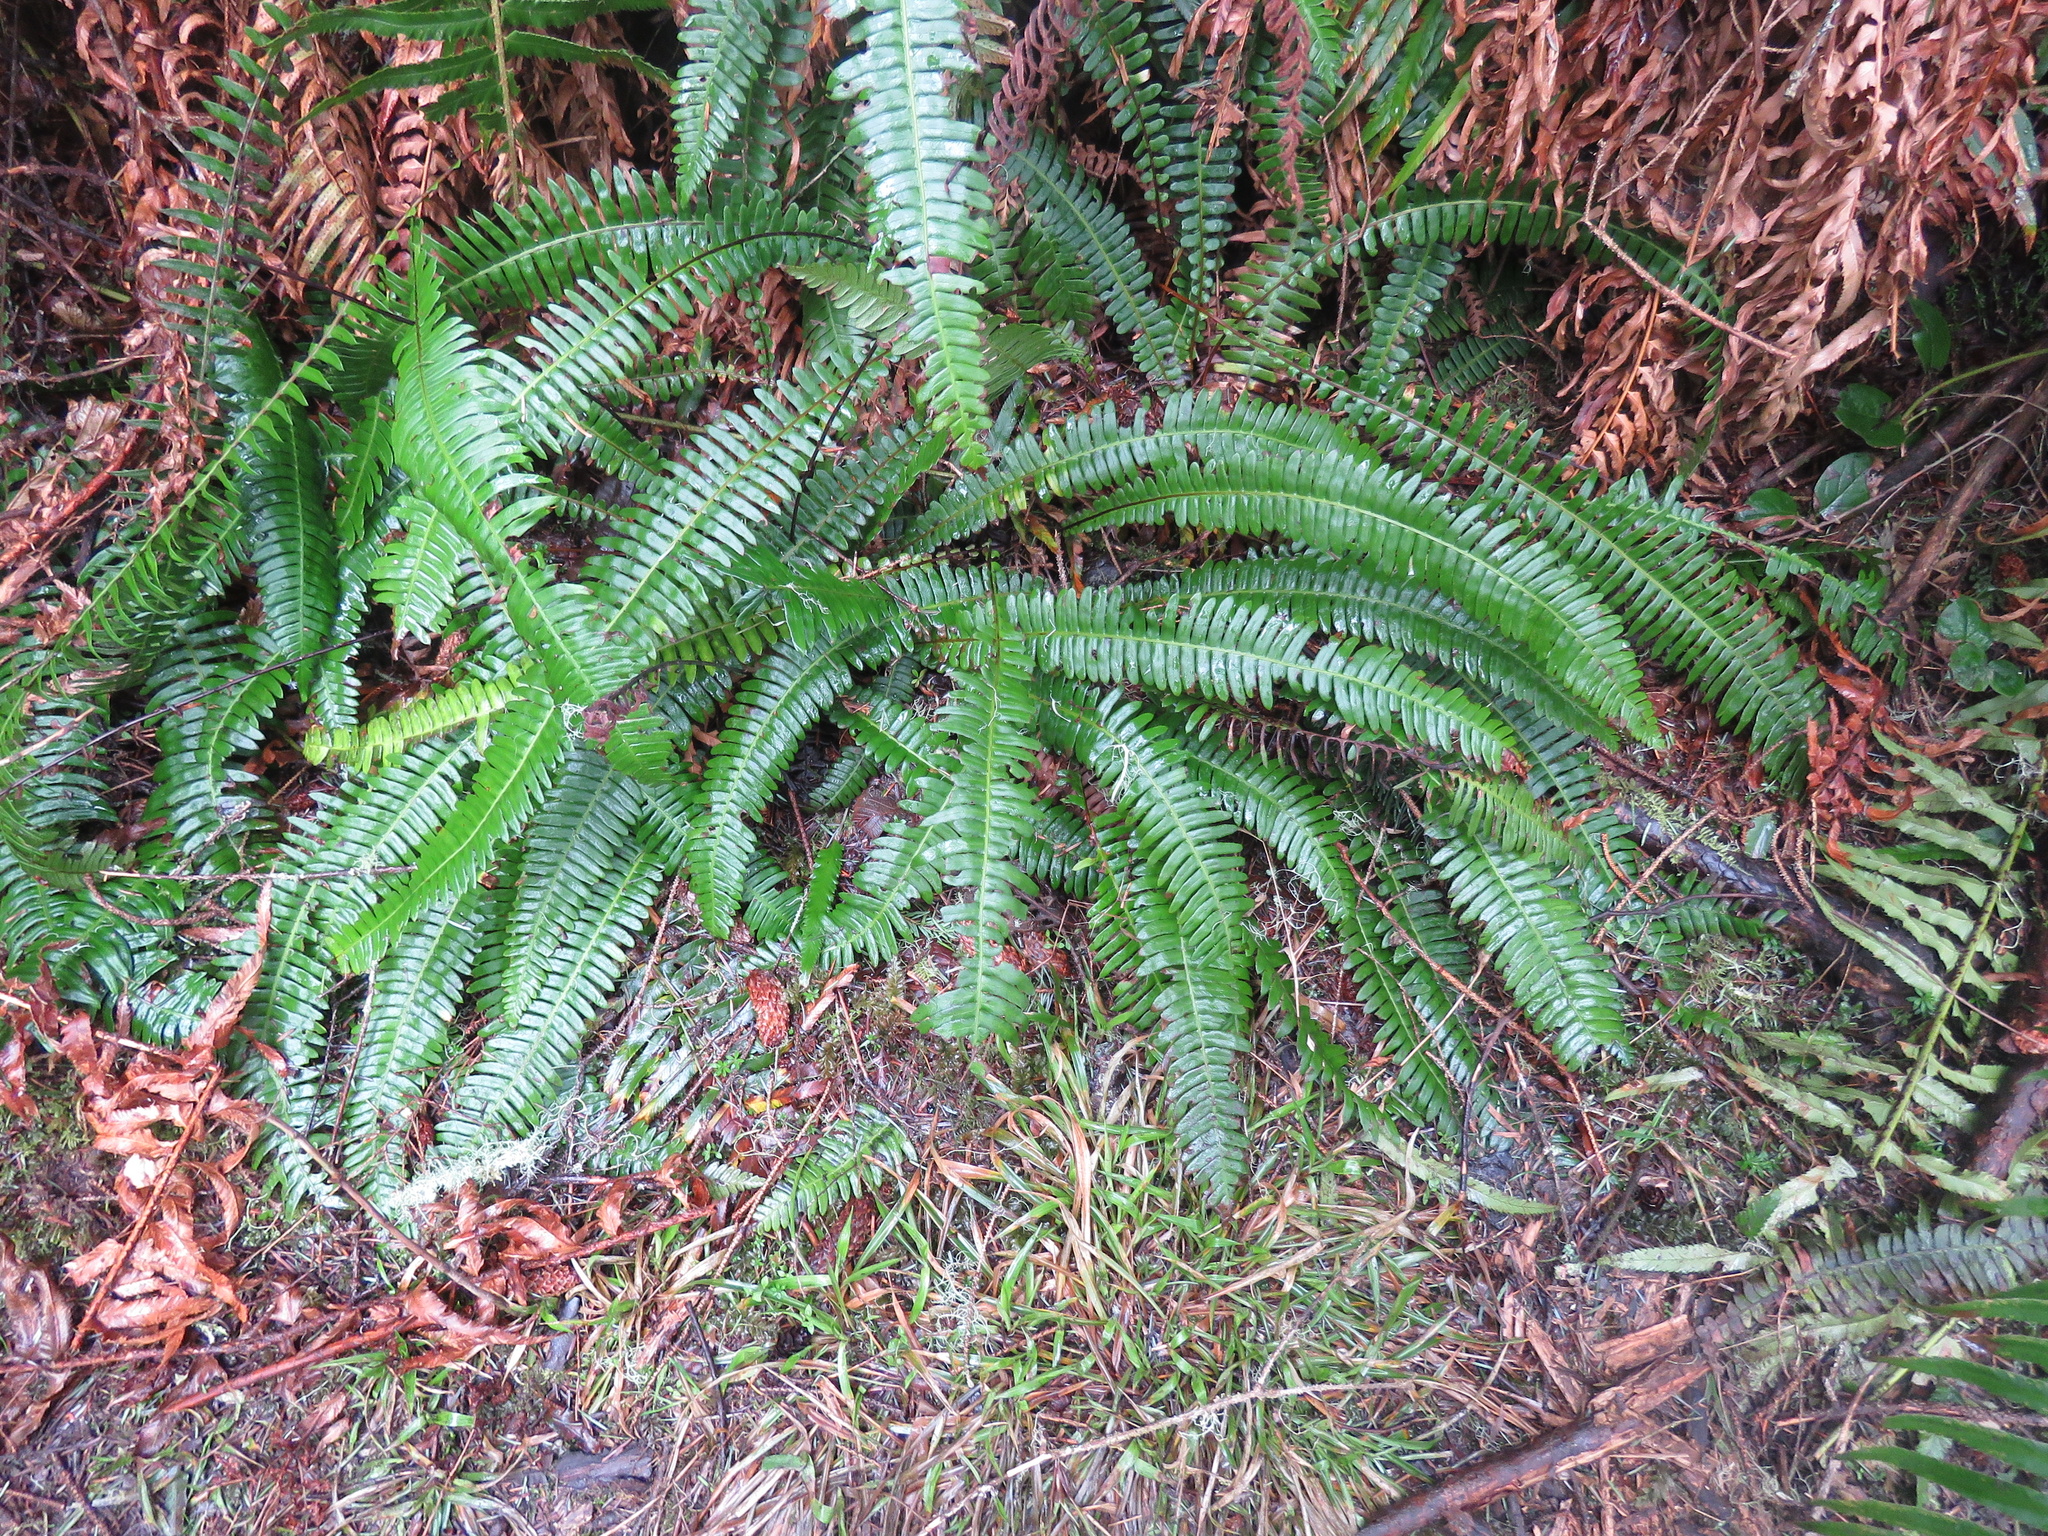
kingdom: Plantae
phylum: Tracheophyta
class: Polypodiopsida
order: Polypodiales
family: Blechnaceae
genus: Struthiopteris
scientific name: Struthiopteris spicant
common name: Deer fern
